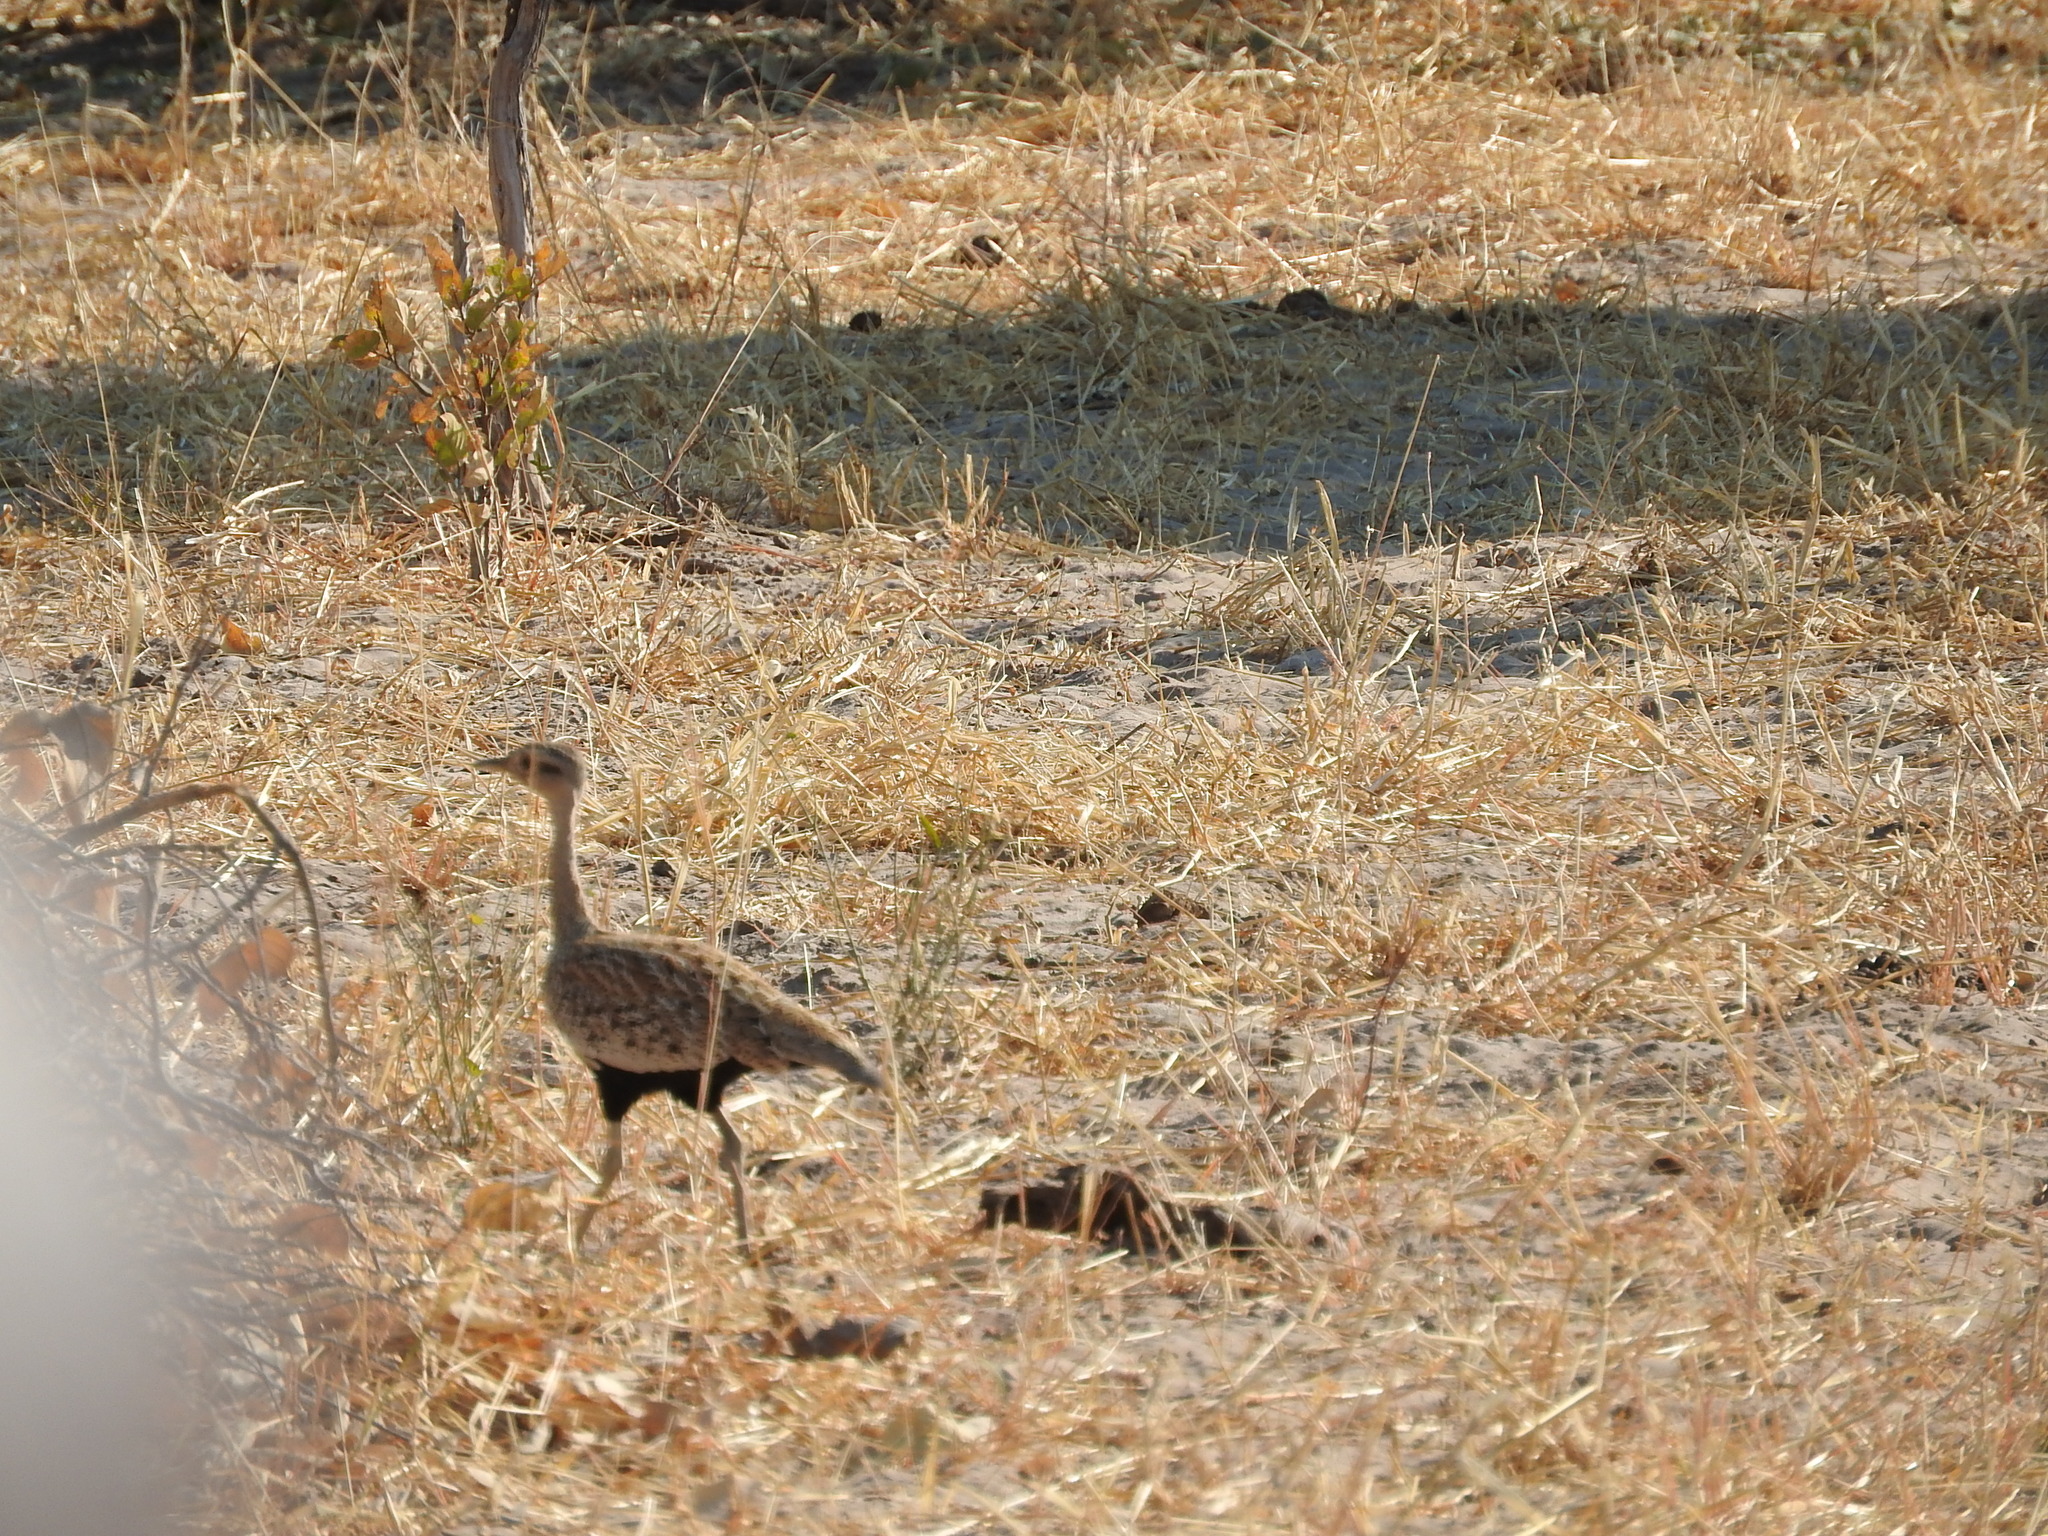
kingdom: Animalia
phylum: Chordata
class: Aves
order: Otidiformes
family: Otididae
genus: Lophotis
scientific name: Lophotis ruficrista
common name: Red-crested korhaan
